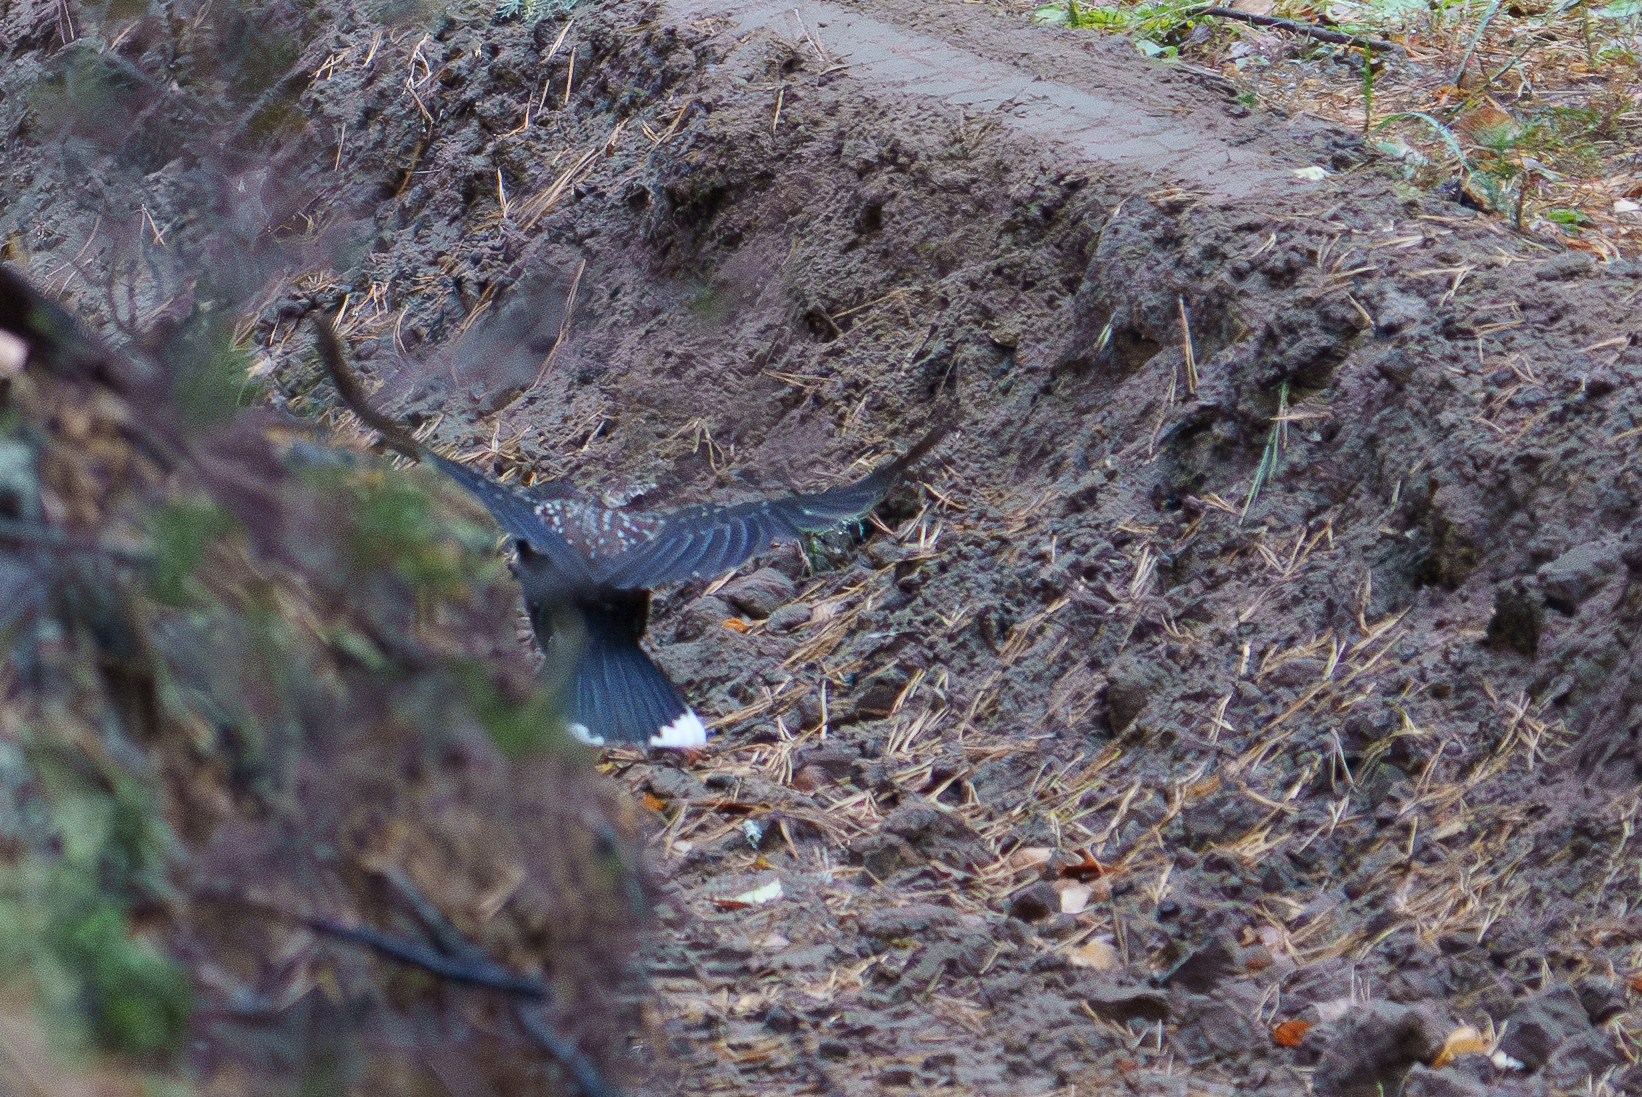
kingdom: Animalia
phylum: Chordata
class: Aves
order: Passeriformes
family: Corvidae
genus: Nucifraga
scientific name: Nucifraga caryocatactes
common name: Spotted nutcracker
